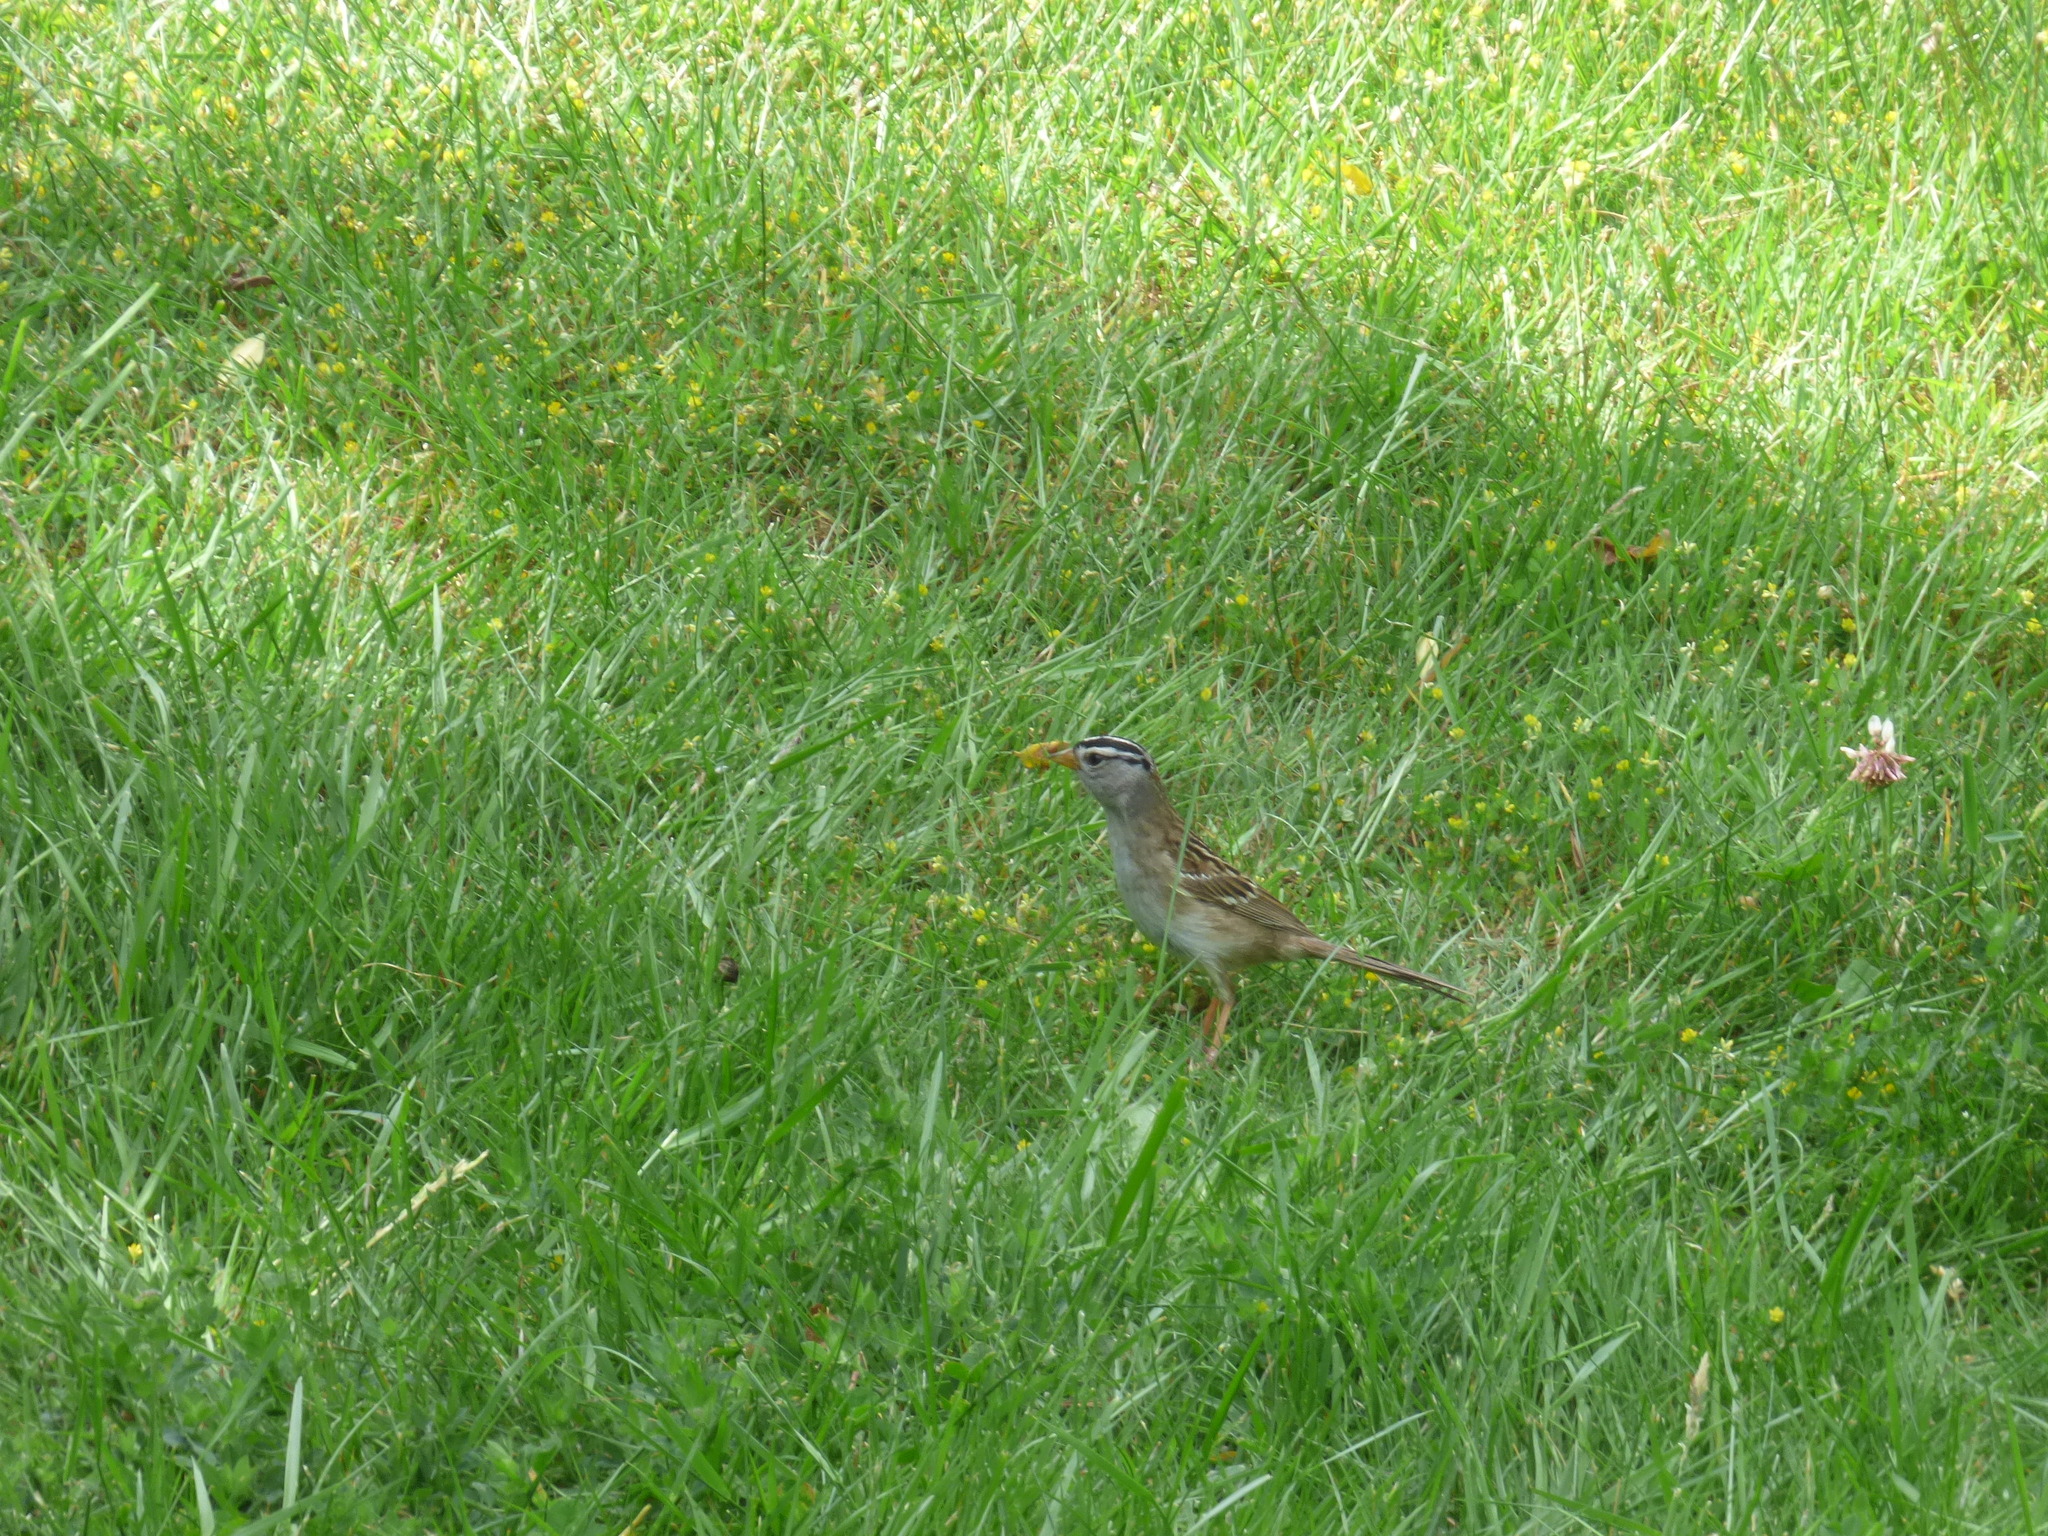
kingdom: Animalia
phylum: Chordata
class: Aves
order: Passeriformes
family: Passerellidae
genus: Zonotrichia
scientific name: Zonotrichia leucophrys
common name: White-crowned sparrow
